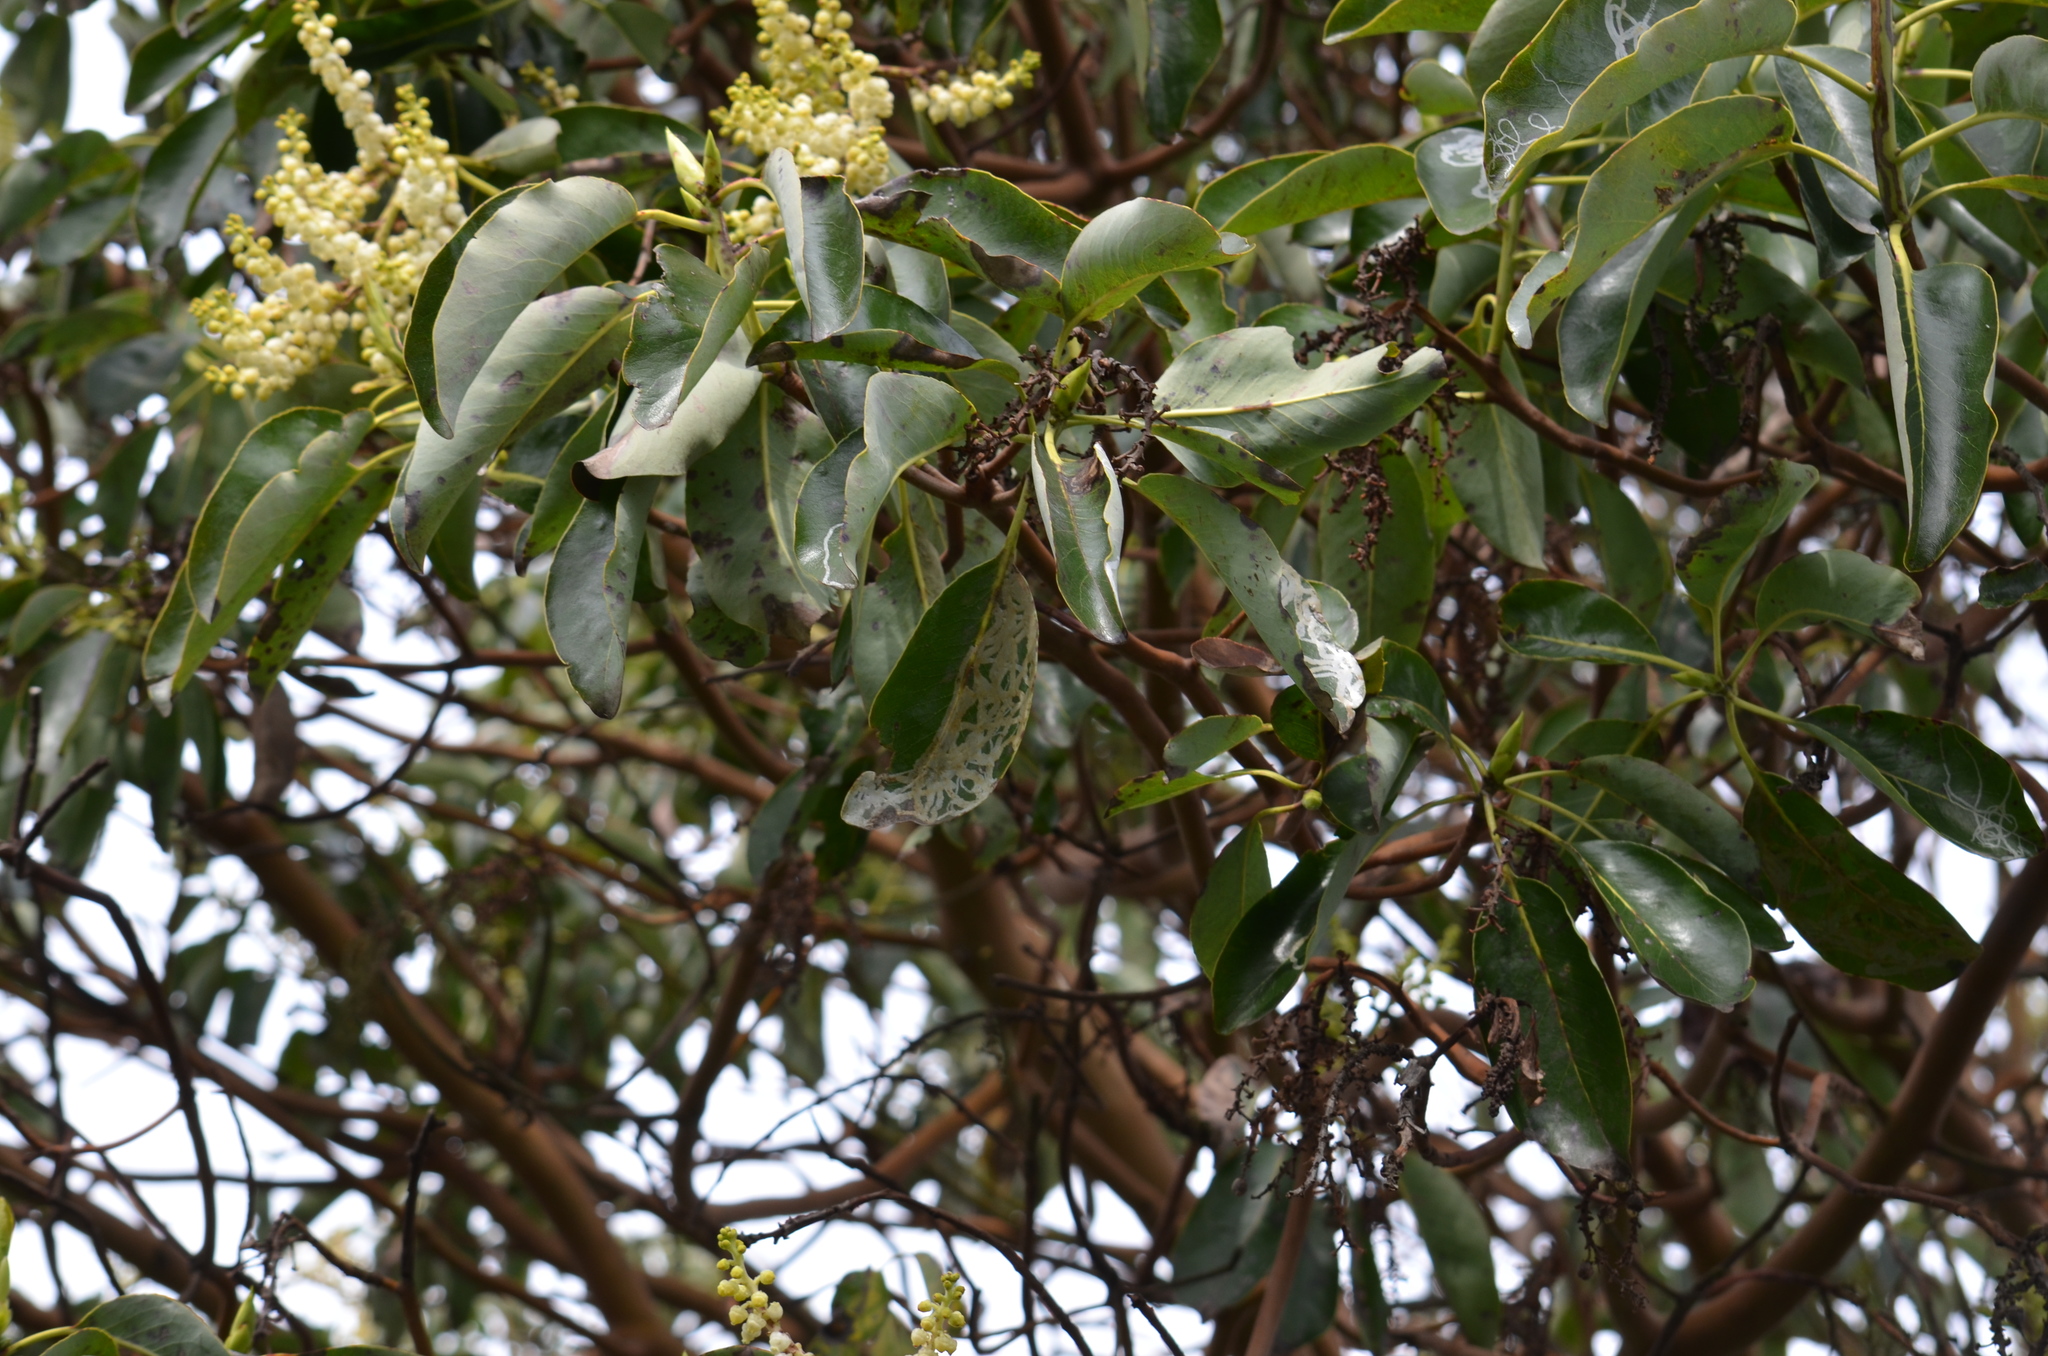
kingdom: Animalia
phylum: Arthropoda
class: Insecta
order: Lepidoptera
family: Gracillariidae
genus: Marmara
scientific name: Marmara arbutiella
